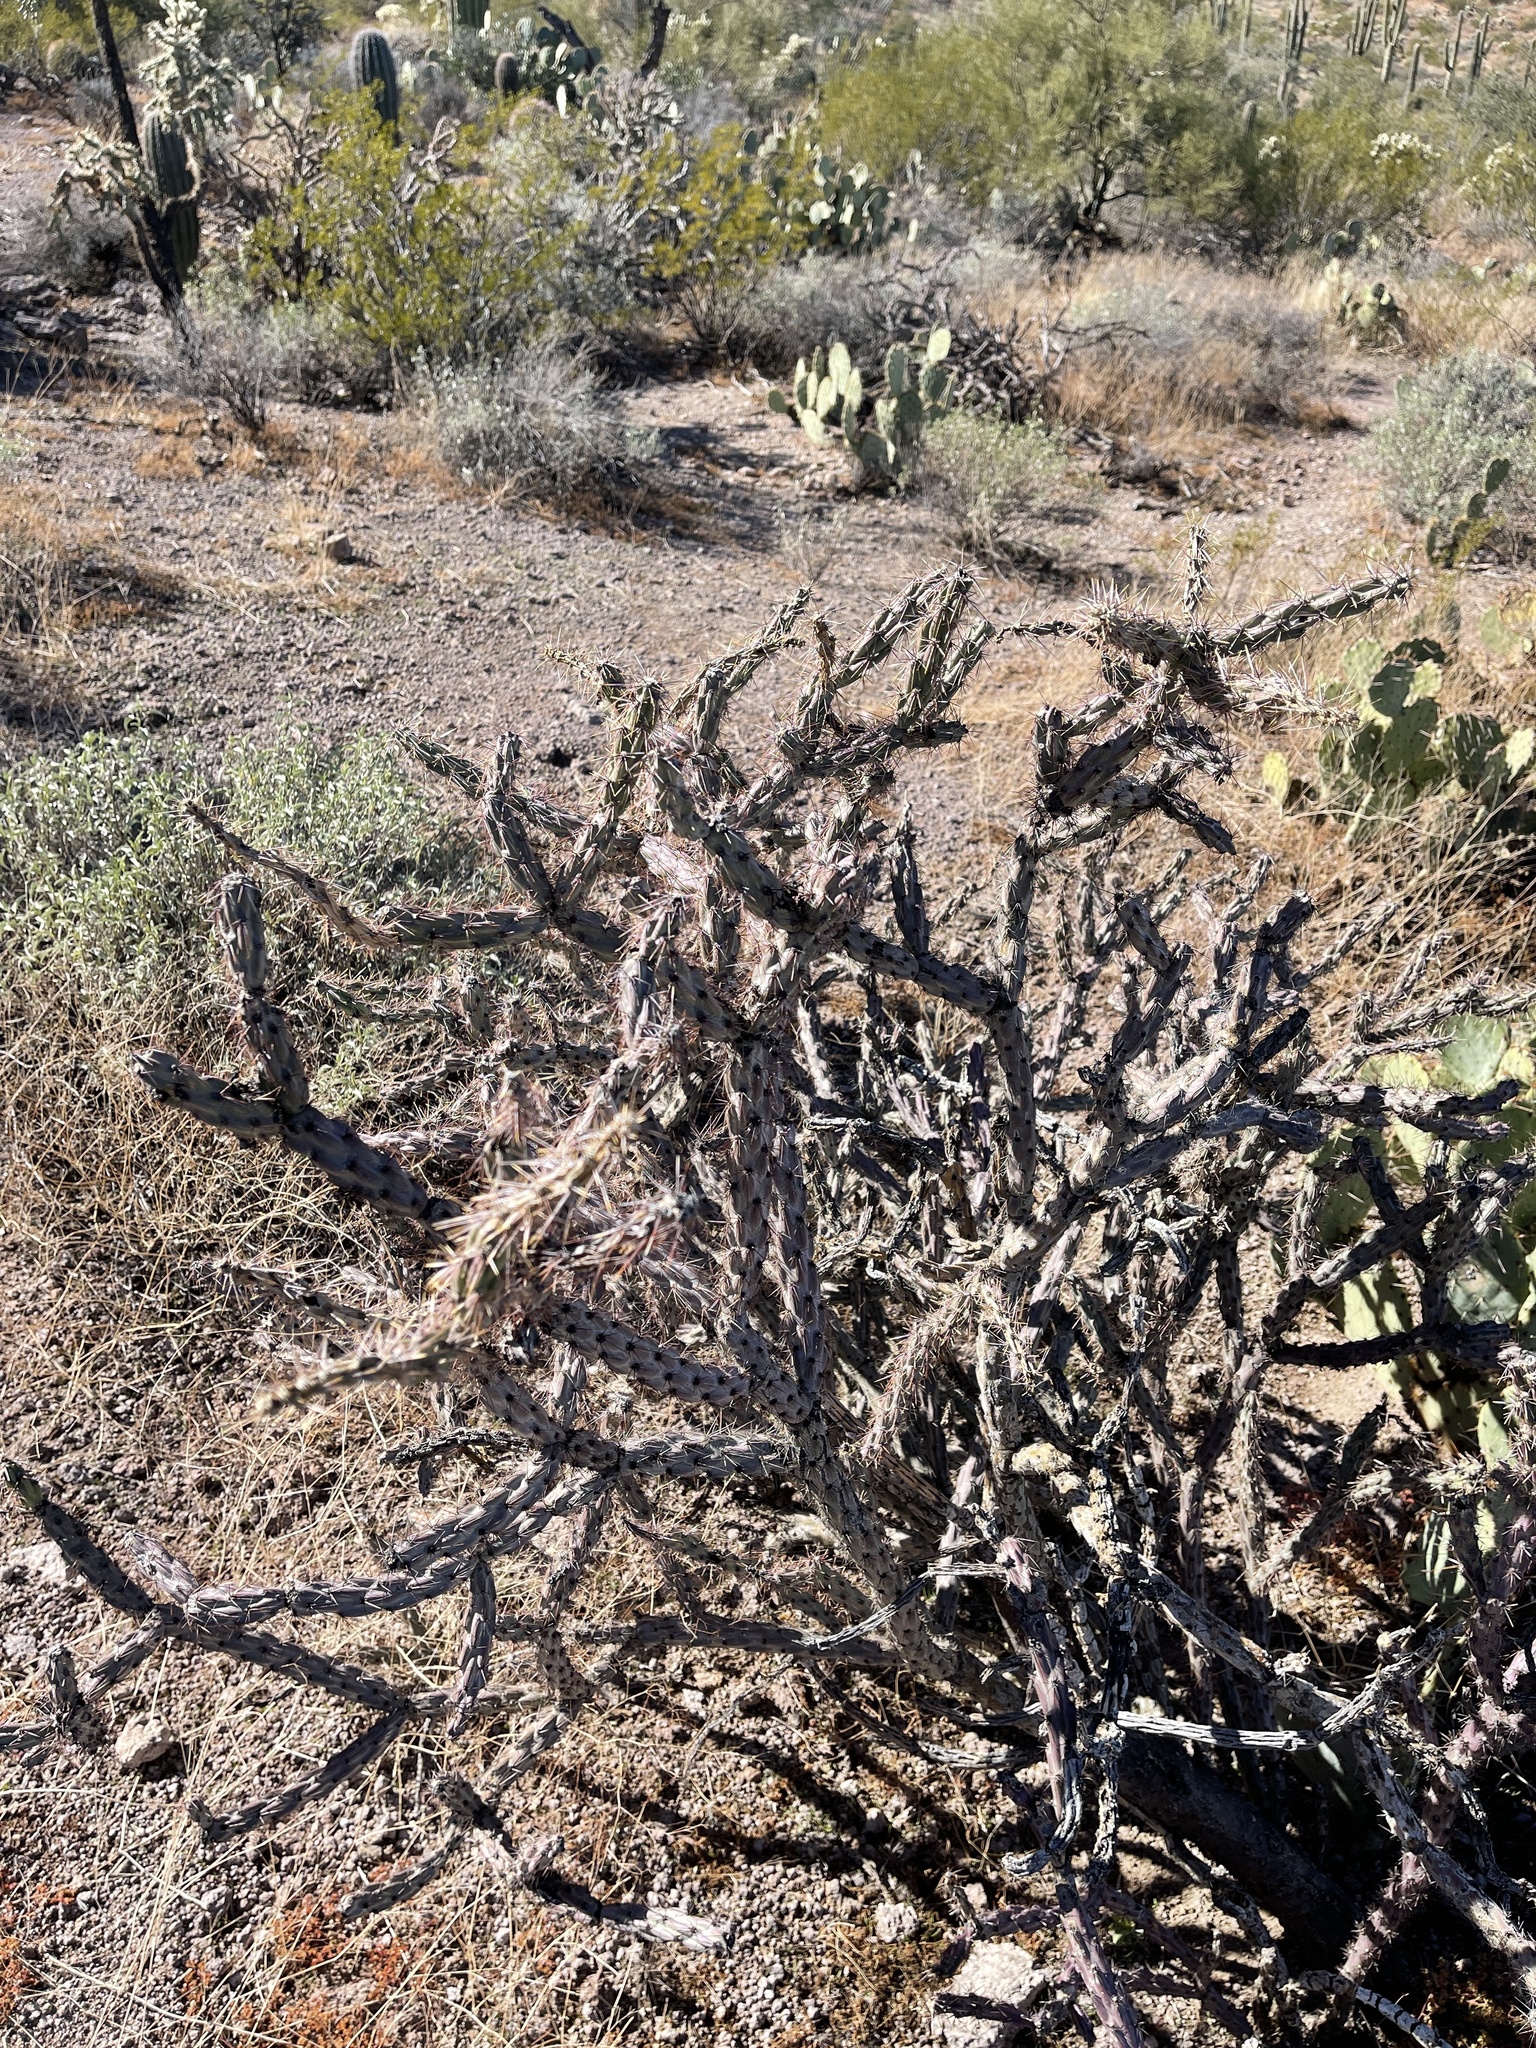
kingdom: Plantae
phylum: Tracheophyta
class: Magnoliopsida
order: Caryophyllales
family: Cactaceae
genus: Cylindropuntia
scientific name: Cylindropuntia acanthocarpa
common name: Buckhorn cholla
